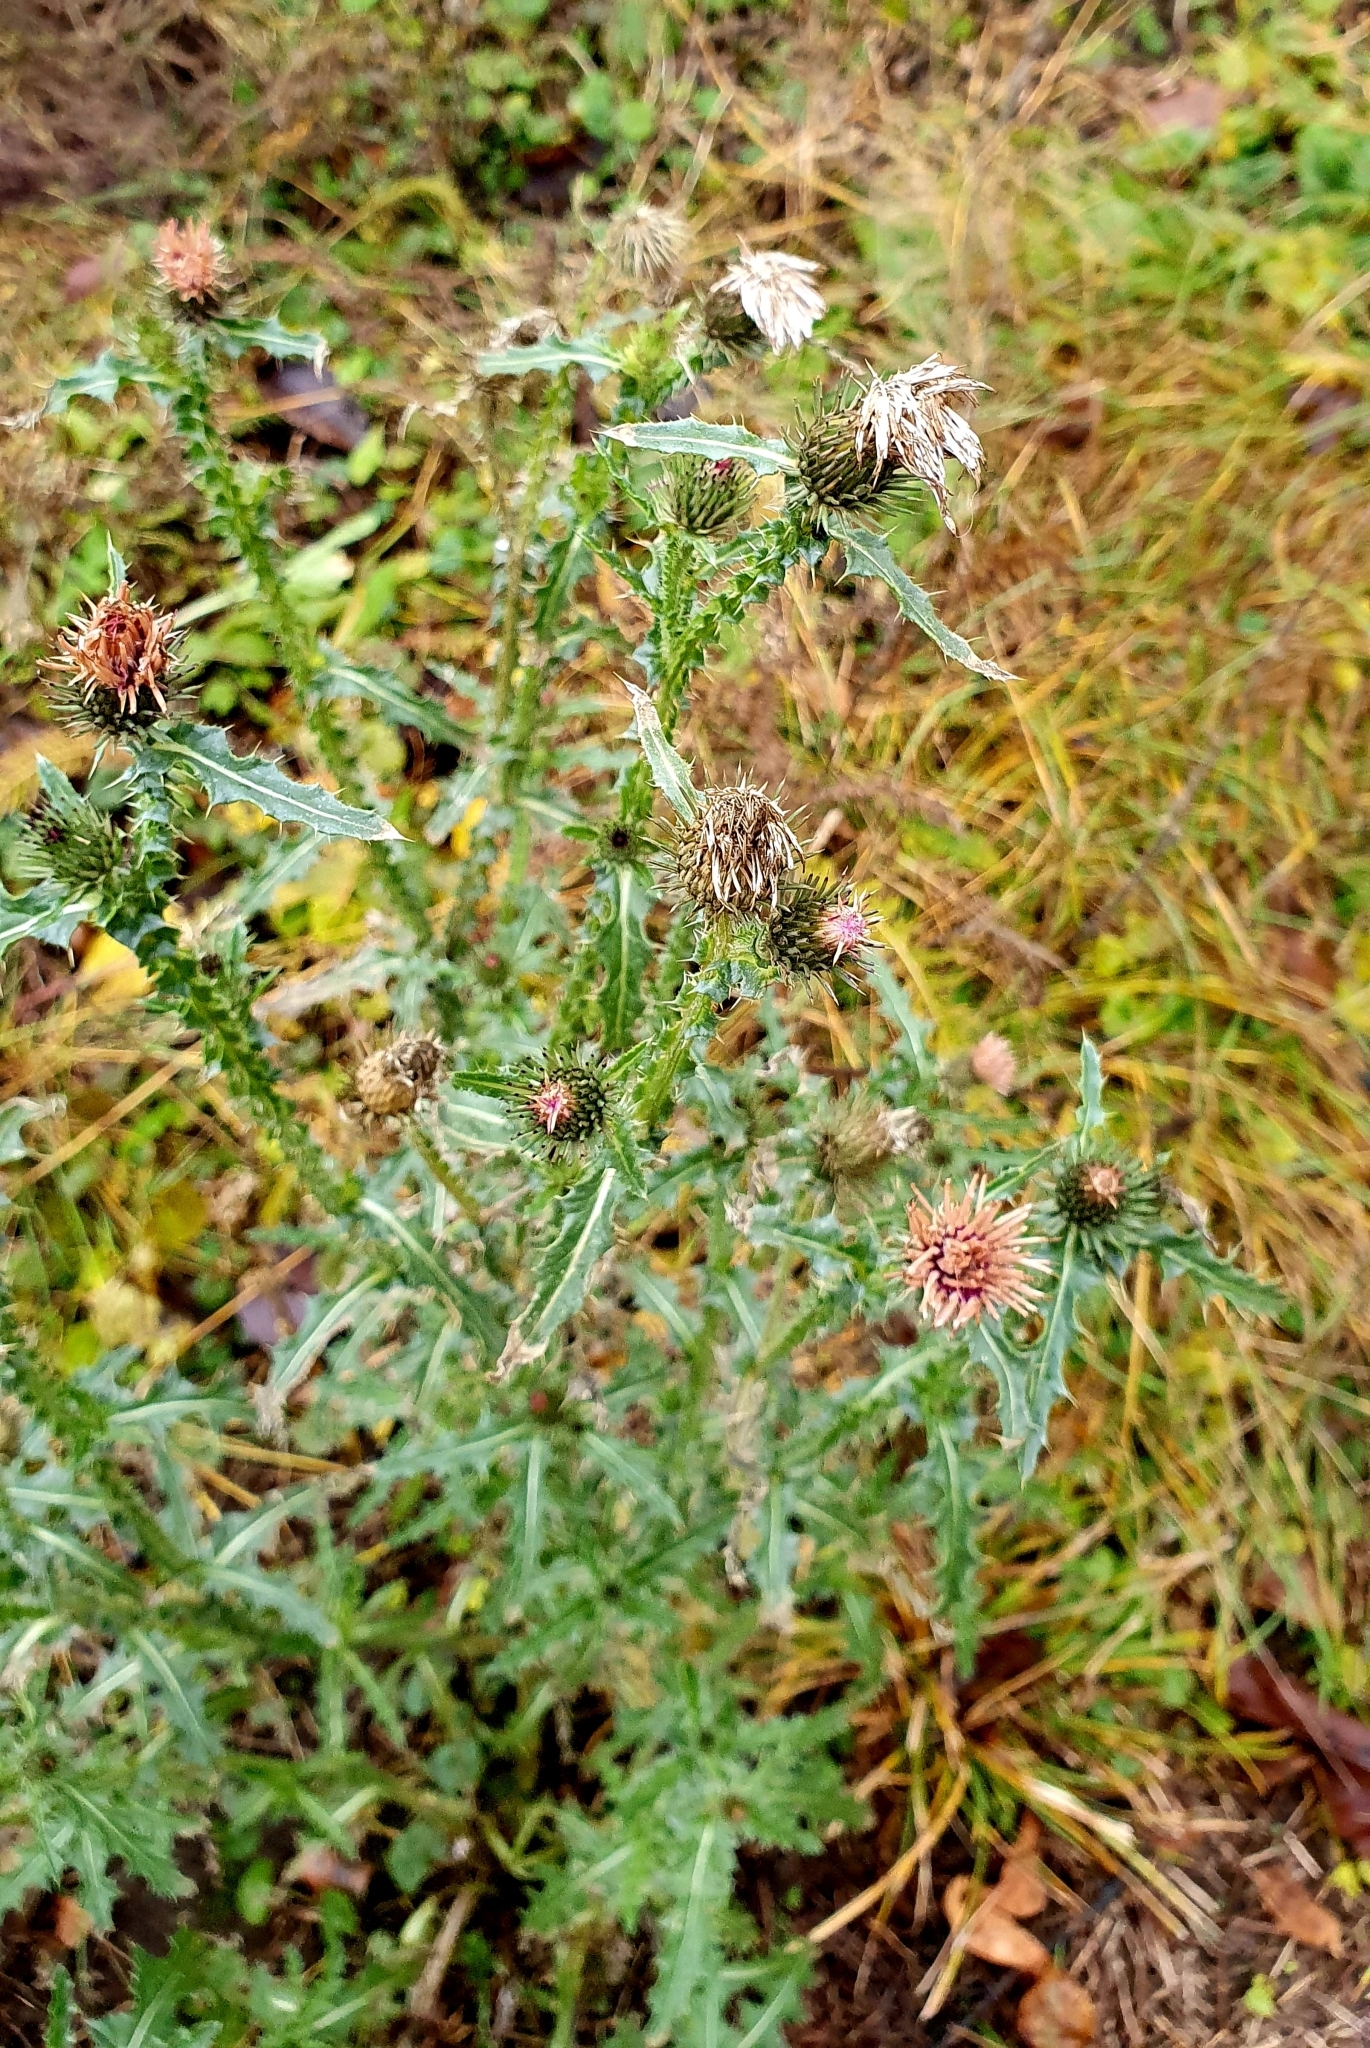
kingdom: Plantae
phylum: Tracheophyta
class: Magnoliopsida
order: Asterales
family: Asteraceae
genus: Carduus
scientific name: Carduus acanthoides
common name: Plumeless thistle
